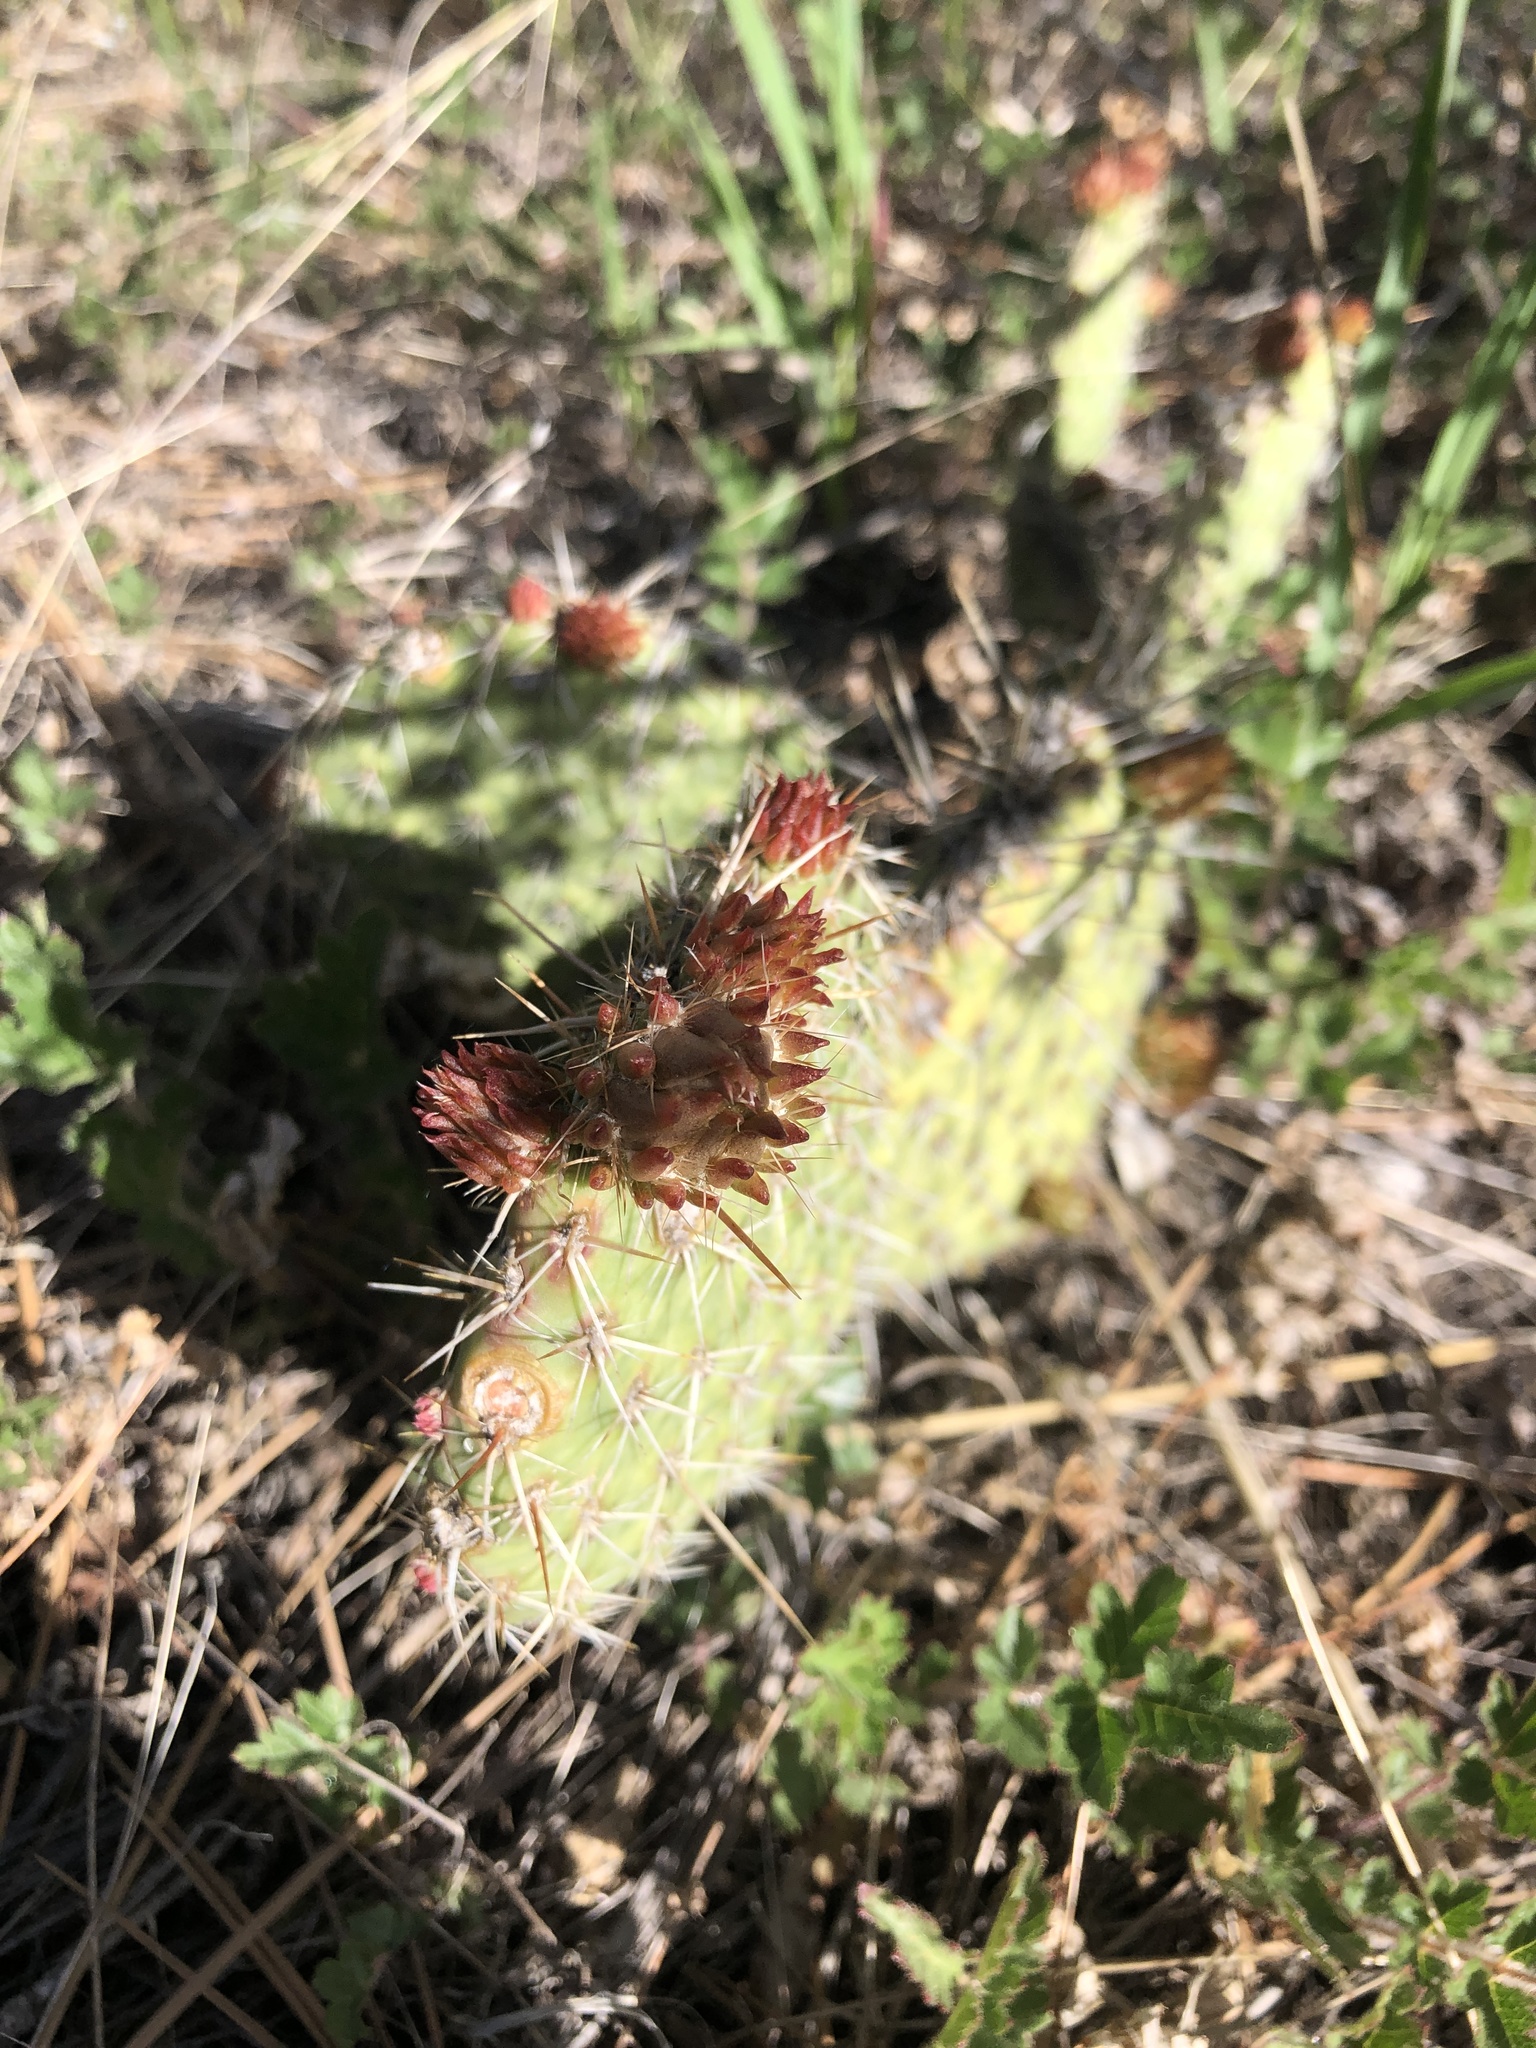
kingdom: Plantae
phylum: Tracheophyta
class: Magnoliopsida
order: Caryophyllales
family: Cactaceae
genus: Opuntia
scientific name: Opuntia polyacantha
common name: Plains prickly-pear
